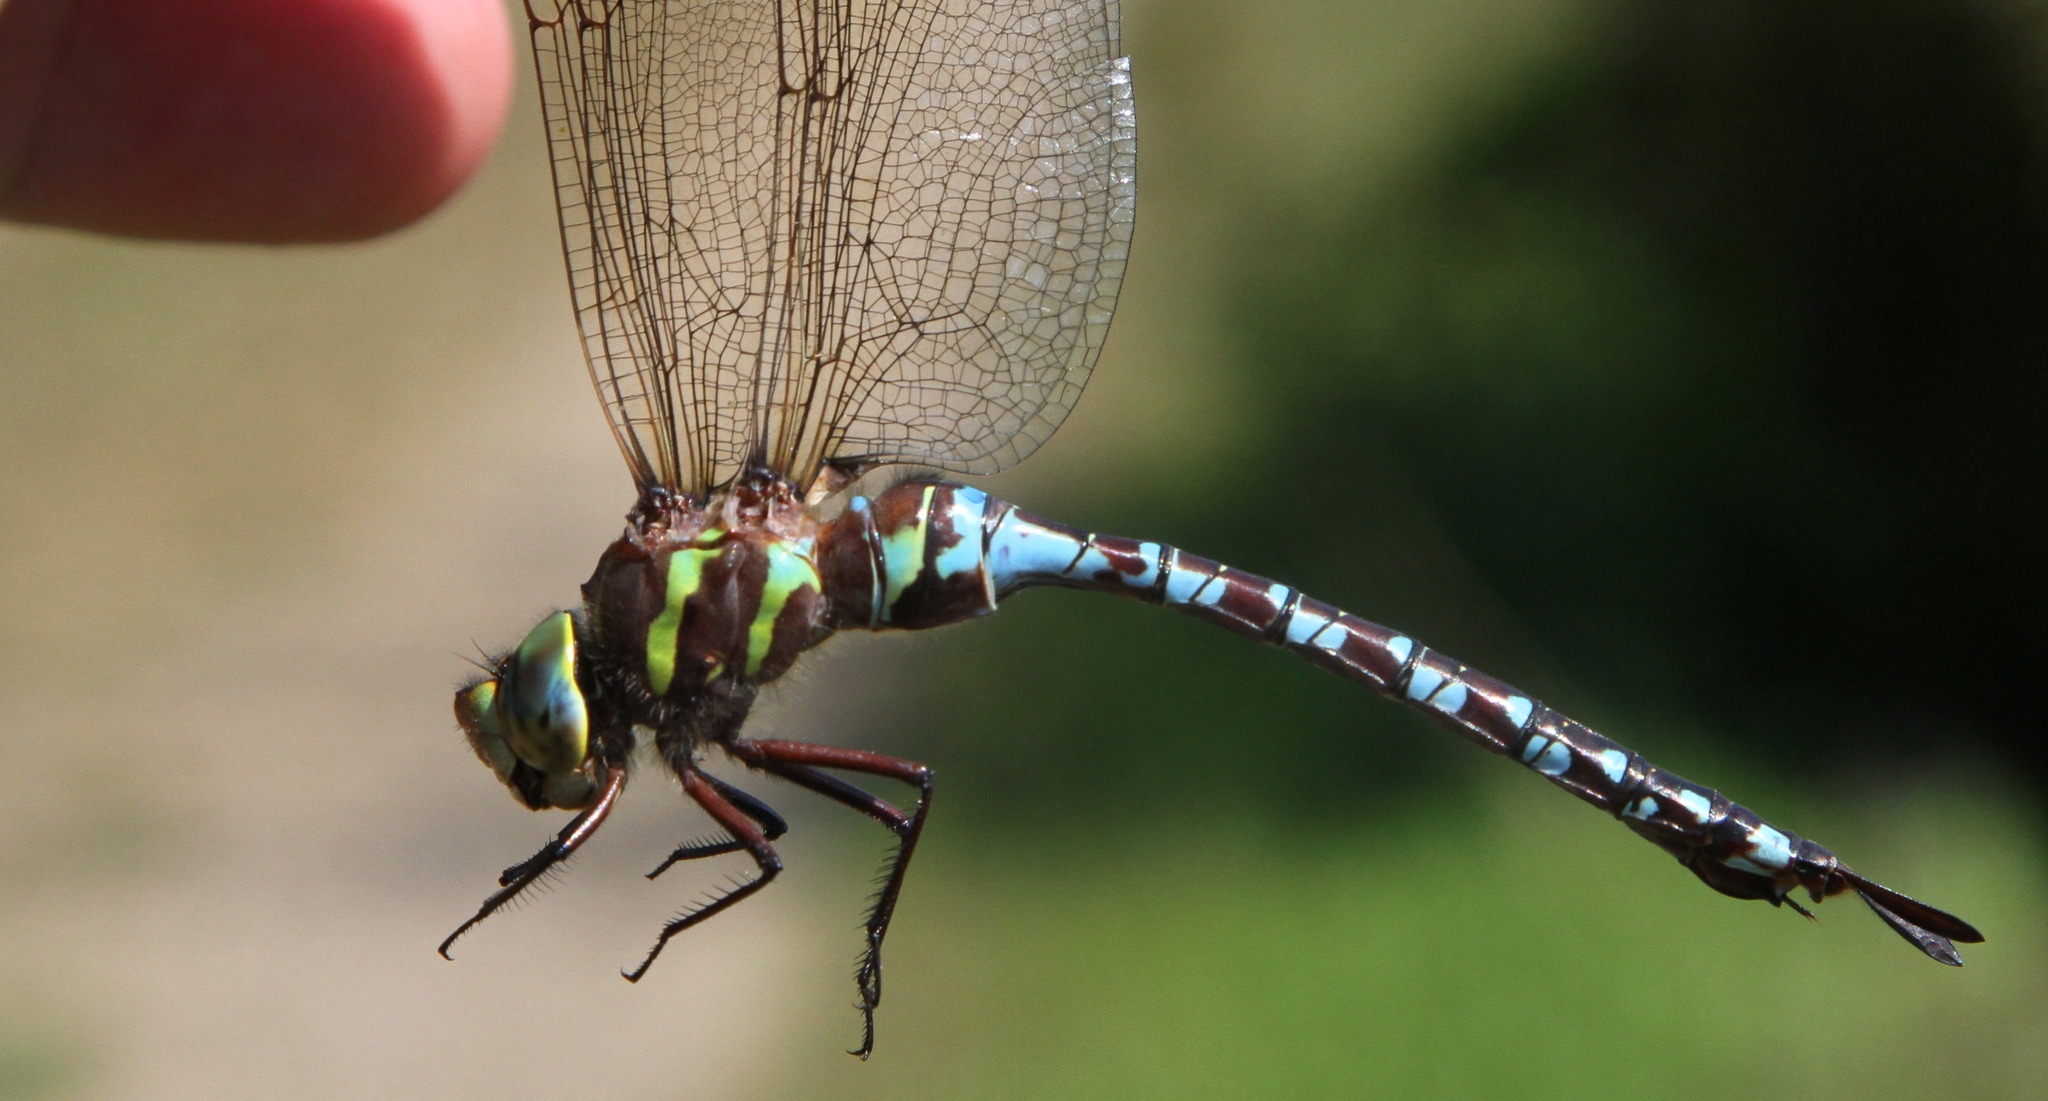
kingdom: Animalia
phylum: Arthropoda
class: Insecta
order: Odonata
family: Aeshnidae
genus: Aeshna
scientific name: Aeshna constricta
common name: Lance-tipped darner
